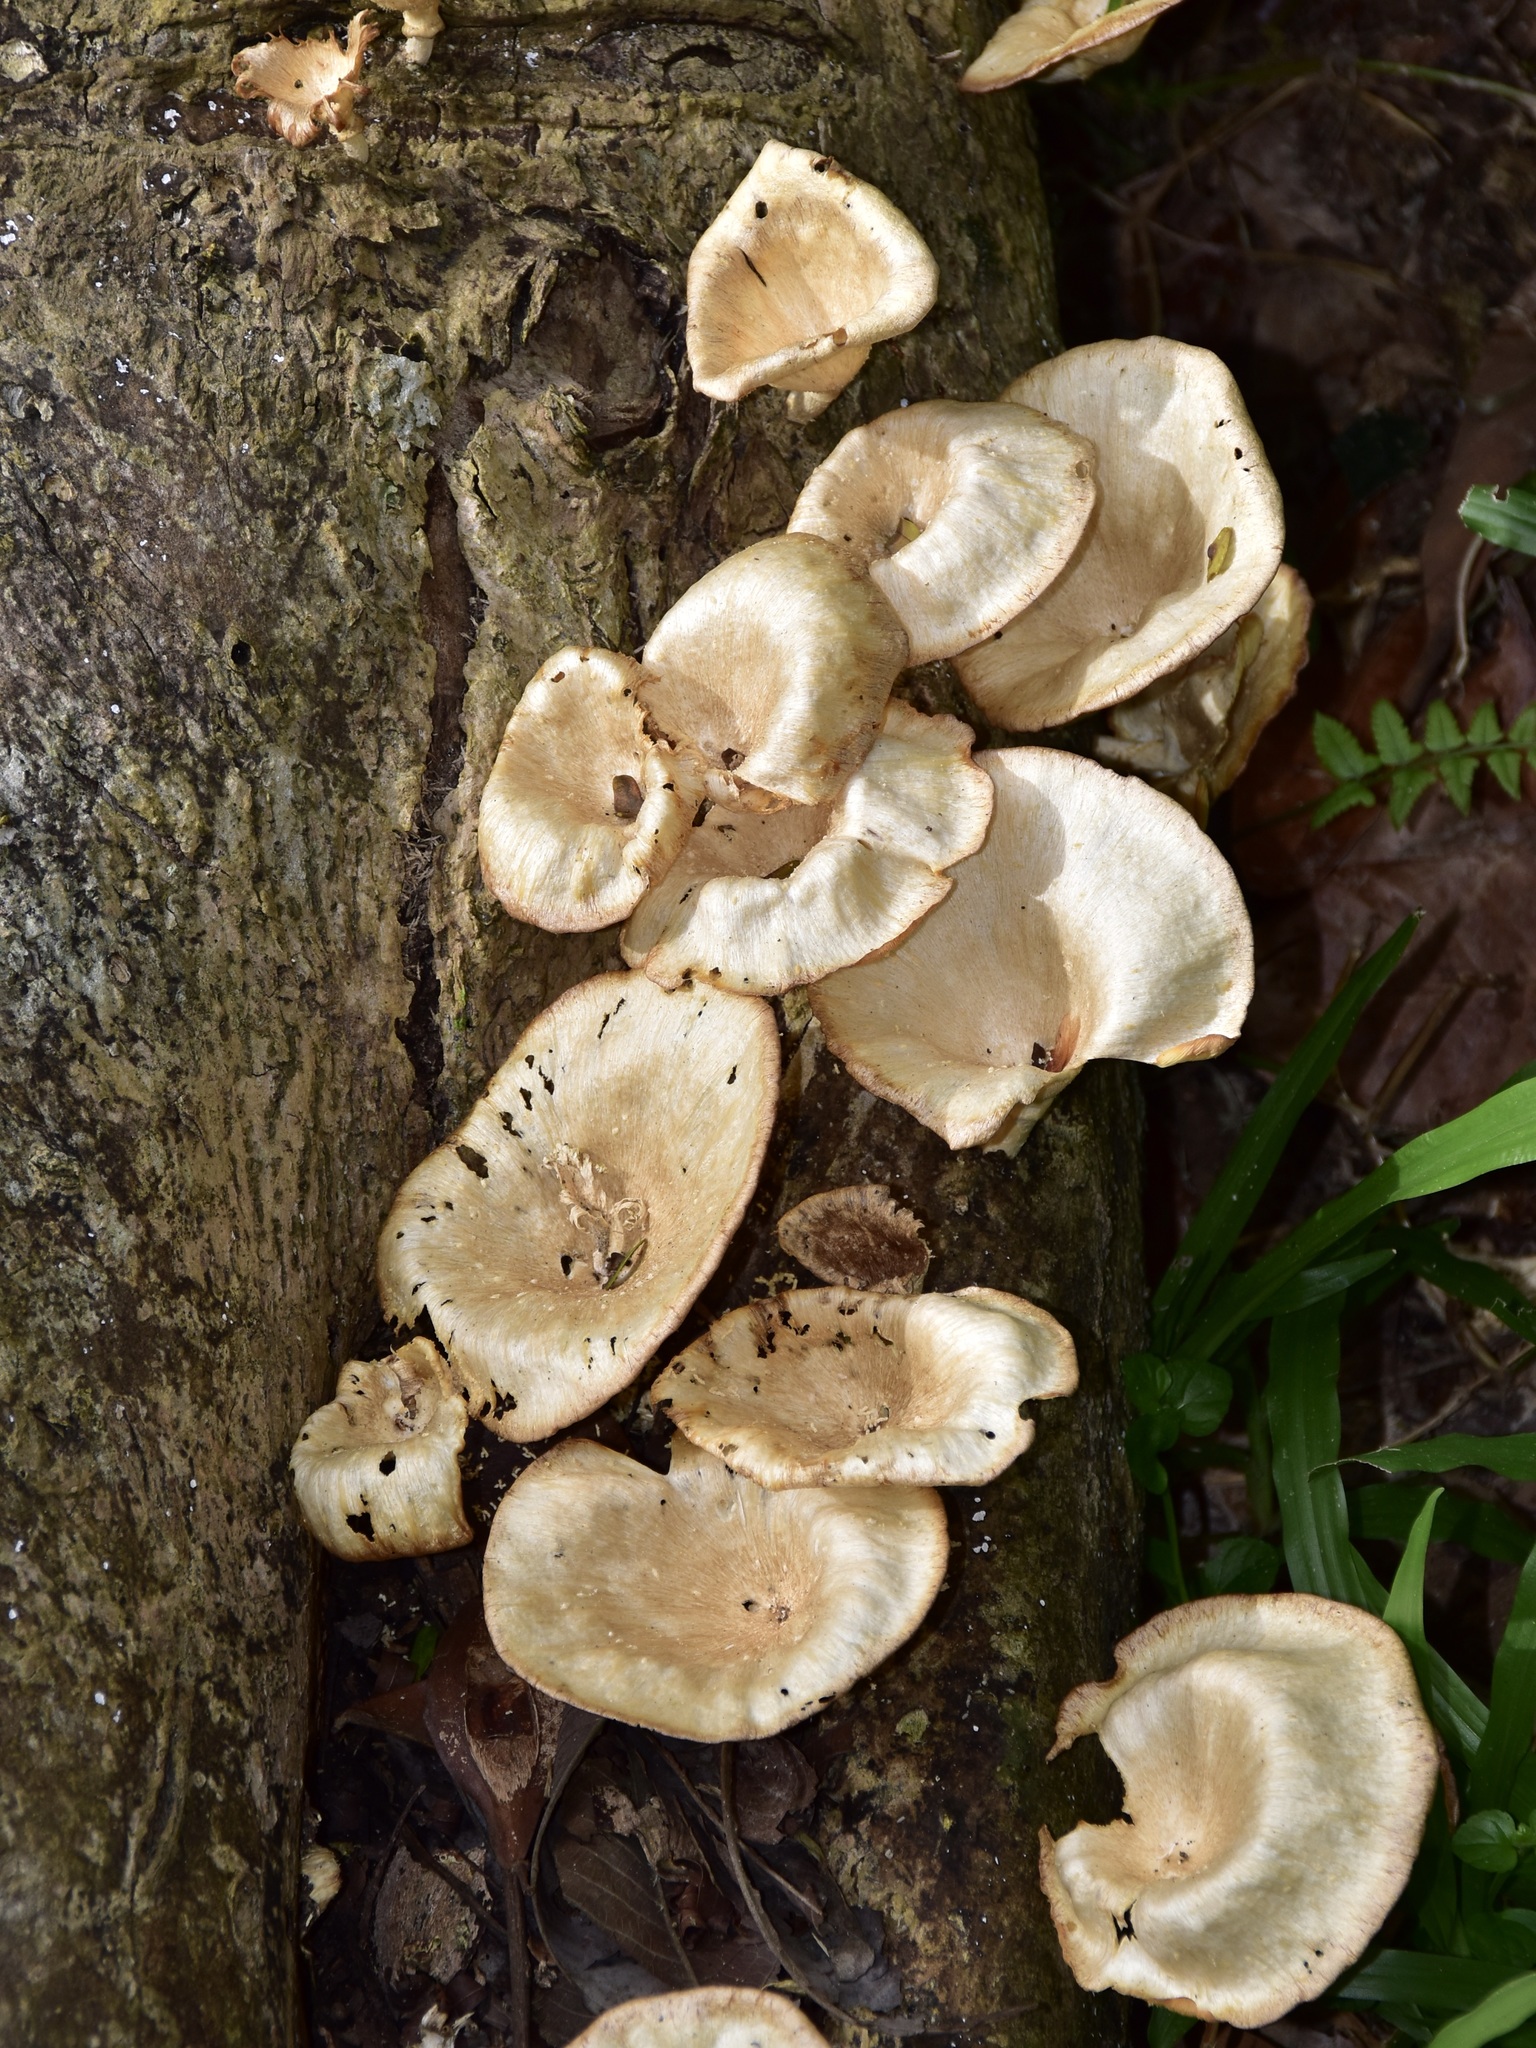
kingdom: Fungi
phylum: Basidiomycota
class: Agaricomycetes
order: Polyporales
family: Polyporaceae
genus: Lentinus
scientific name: Lentinus sajor-caju
